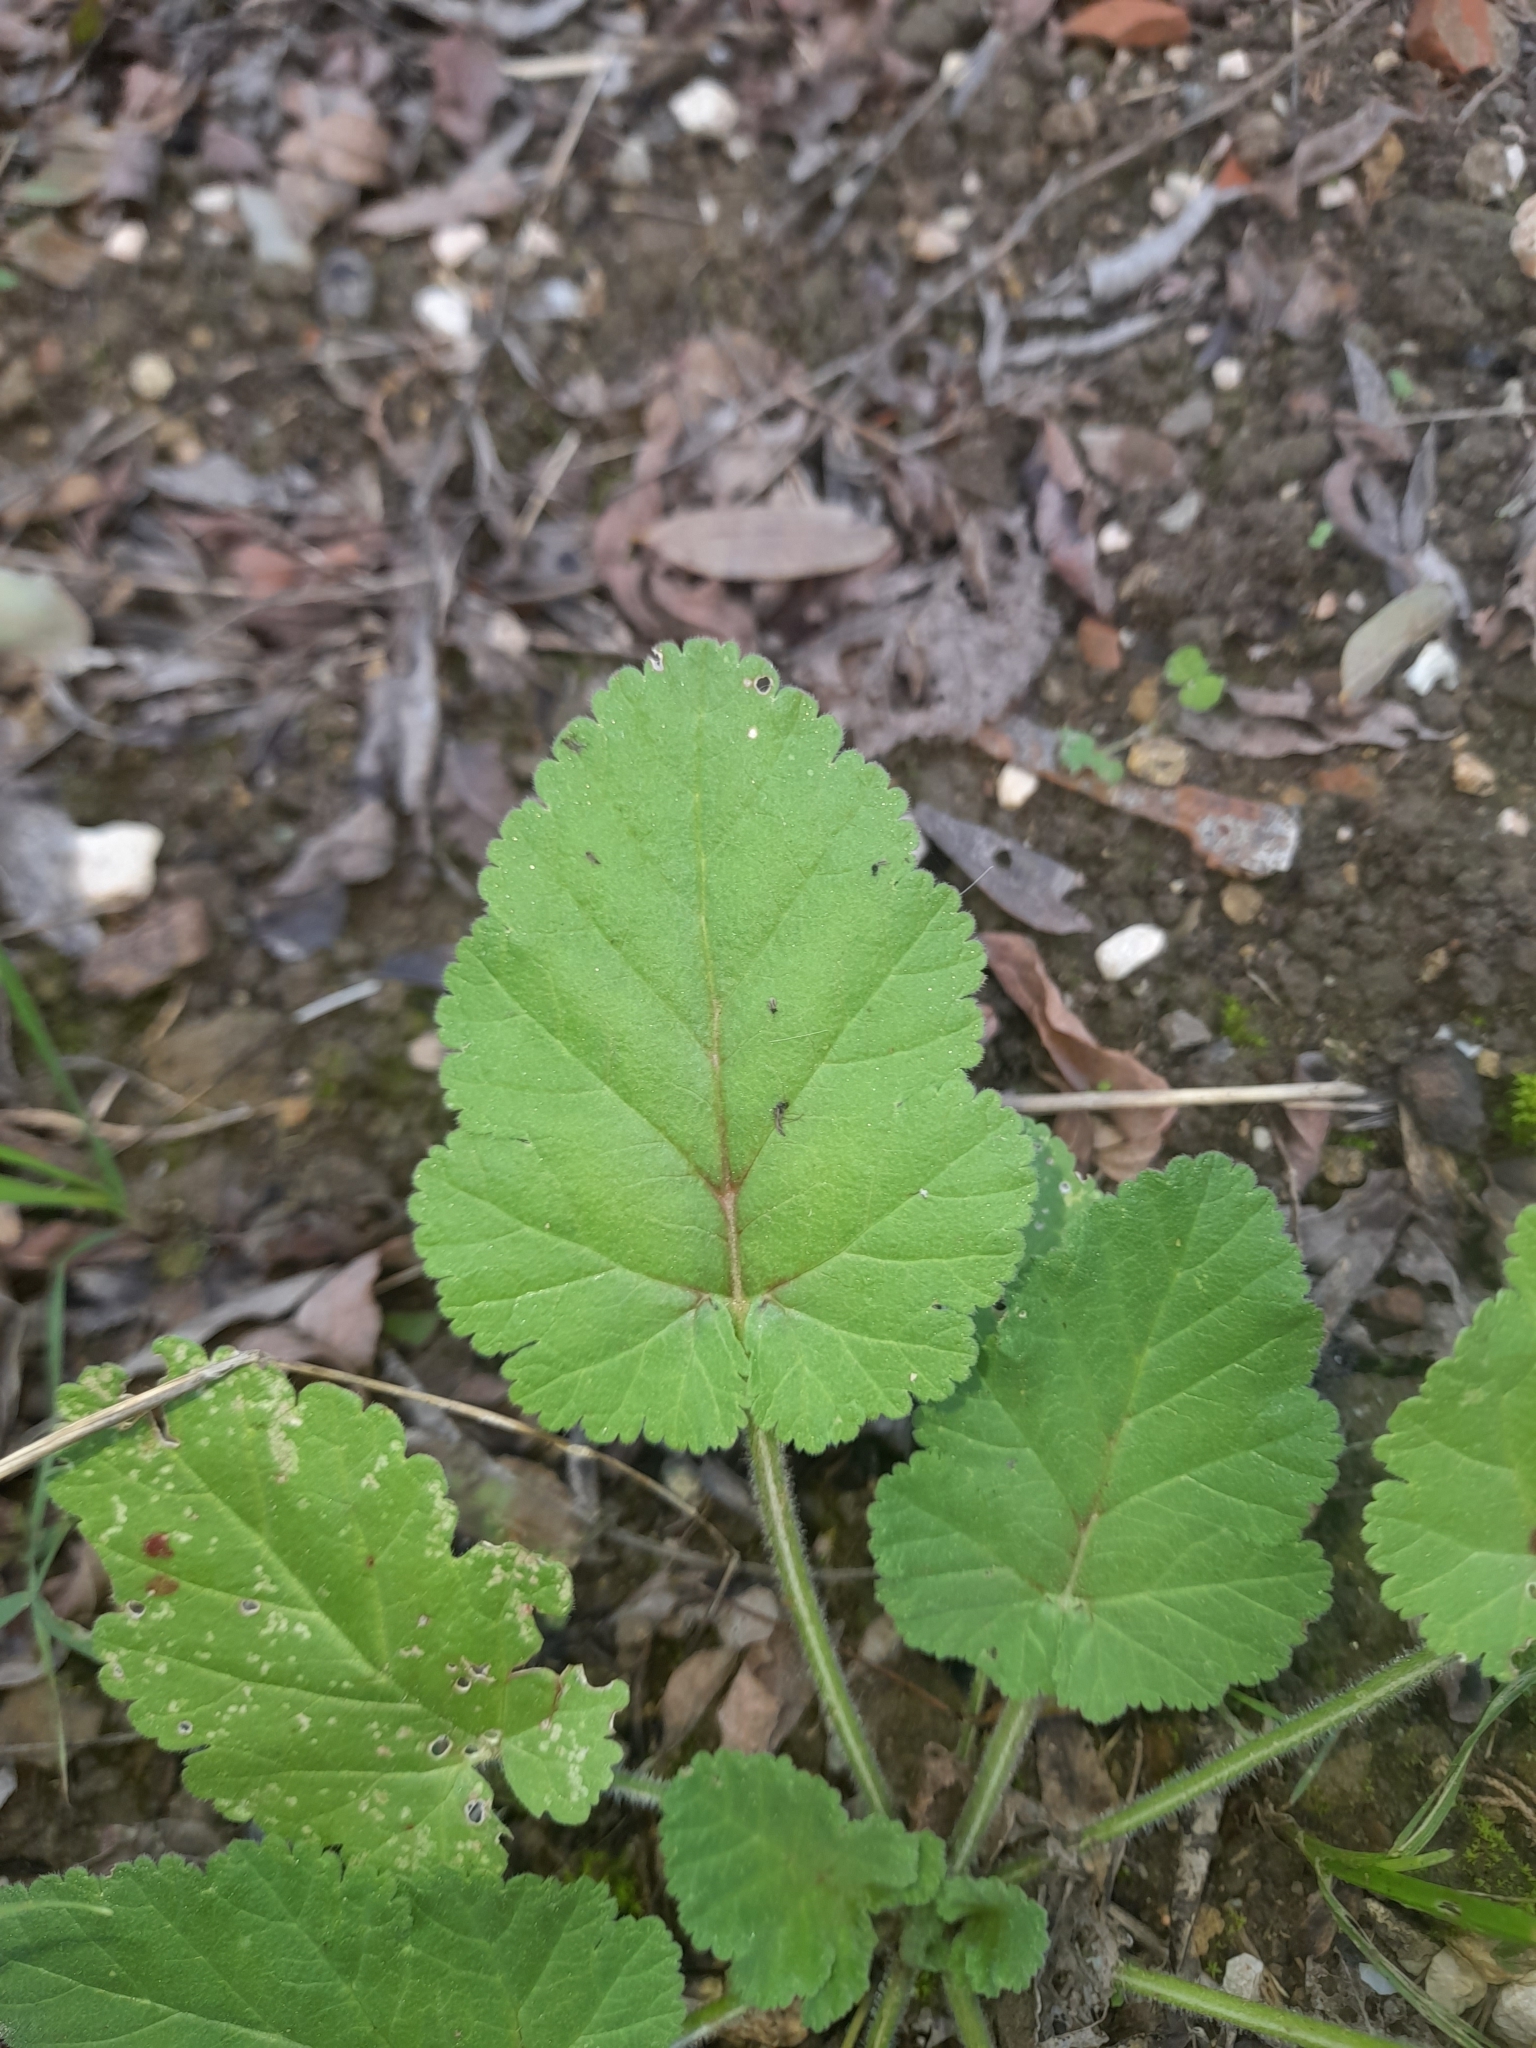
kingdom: Plantae
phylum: Tracheophyta
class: Magnoliopsida
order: Geraniales
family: Geraniaceae
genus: Erodium
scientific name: Erodium malacoides
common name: Soft stork's-bill
